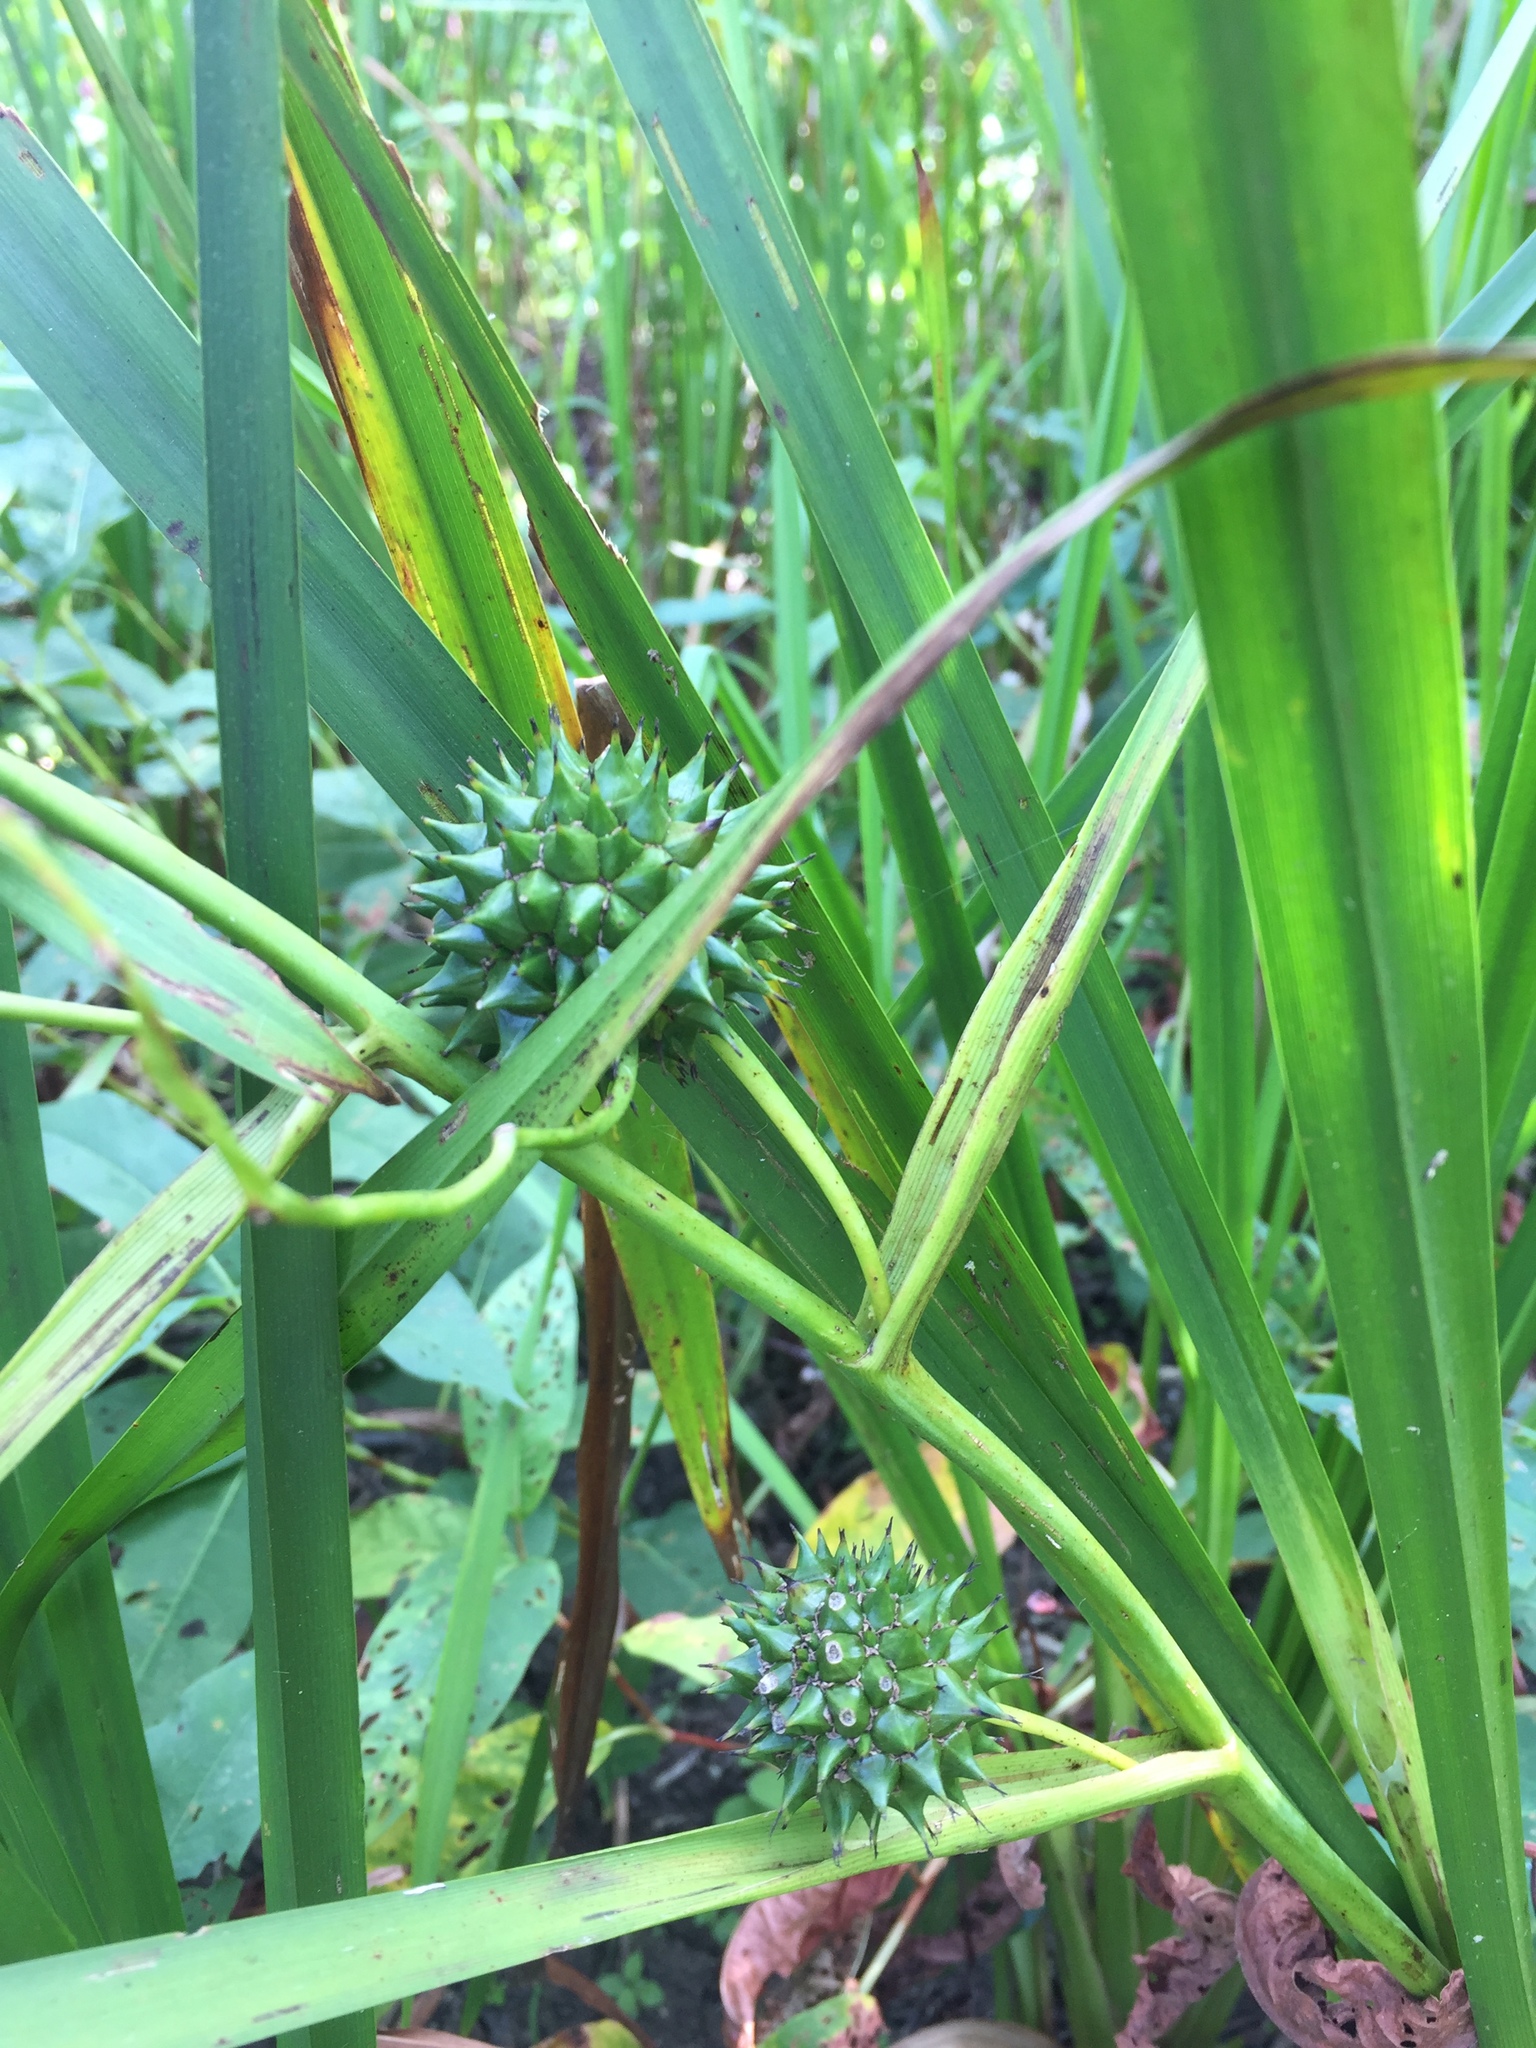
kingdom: Plantae
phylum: Tracheophyta
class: Liliopsida
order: Poales
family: Typhaceae
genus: Sparganium
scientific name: Sparganium eurycarpum
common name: Broad-fruited burreed
